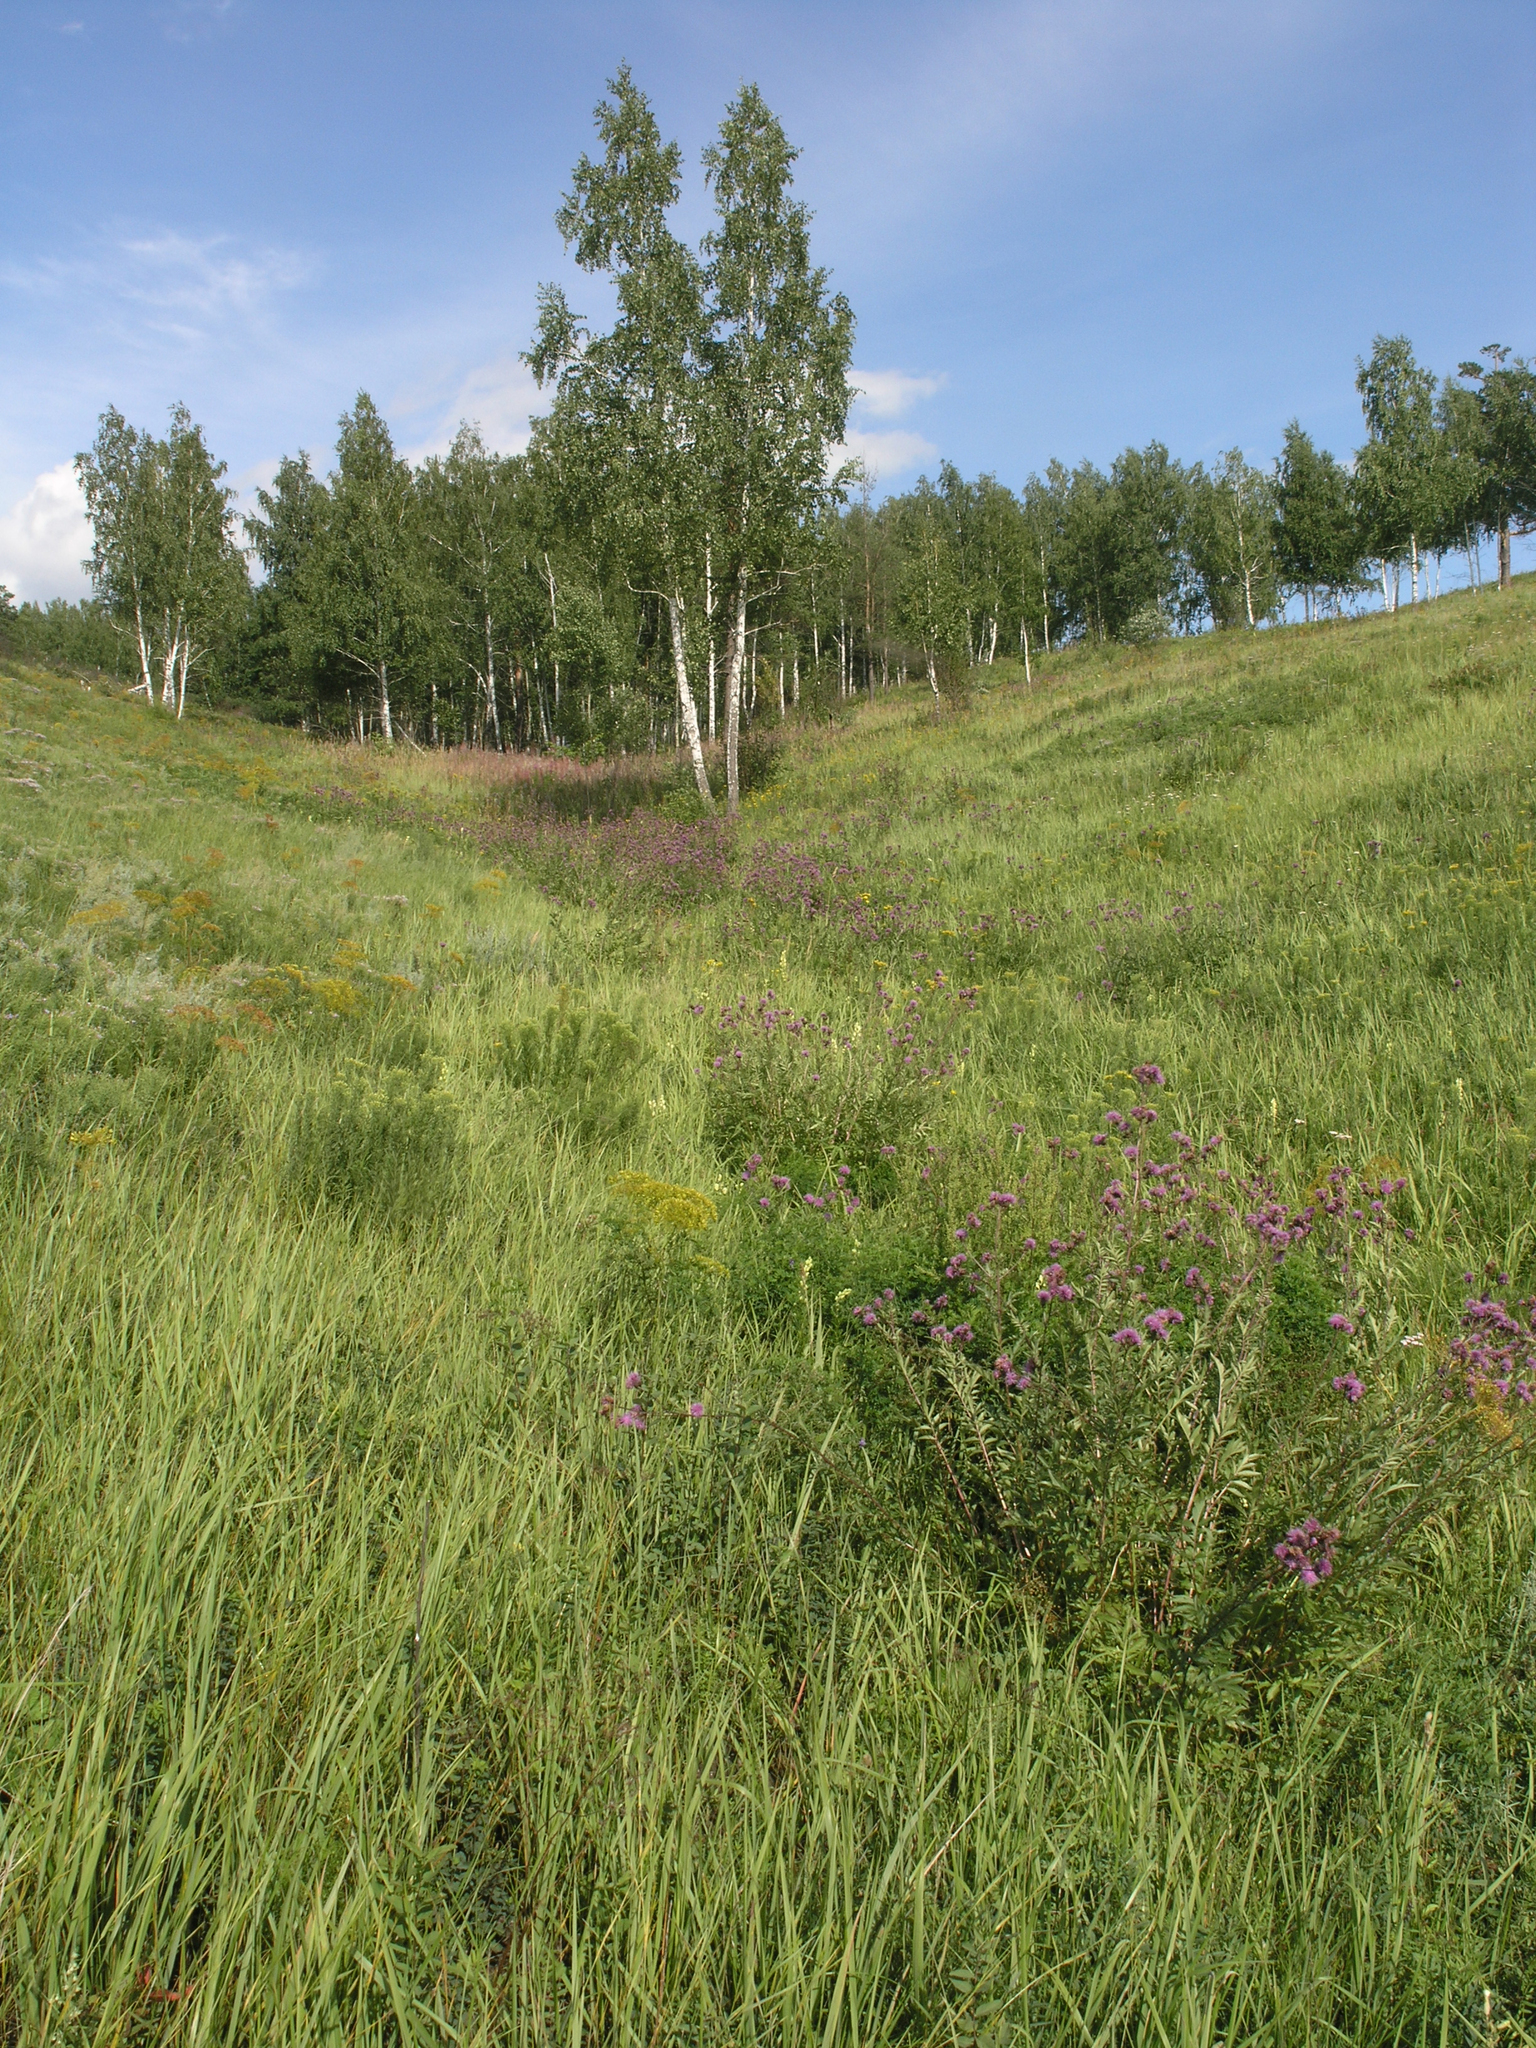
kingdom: Plantae
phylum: Tracheophyta
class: Magnoliopsida
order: Fagales
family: Betulaceae
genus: Betula
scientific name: Betula pendula
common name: Silver birch
